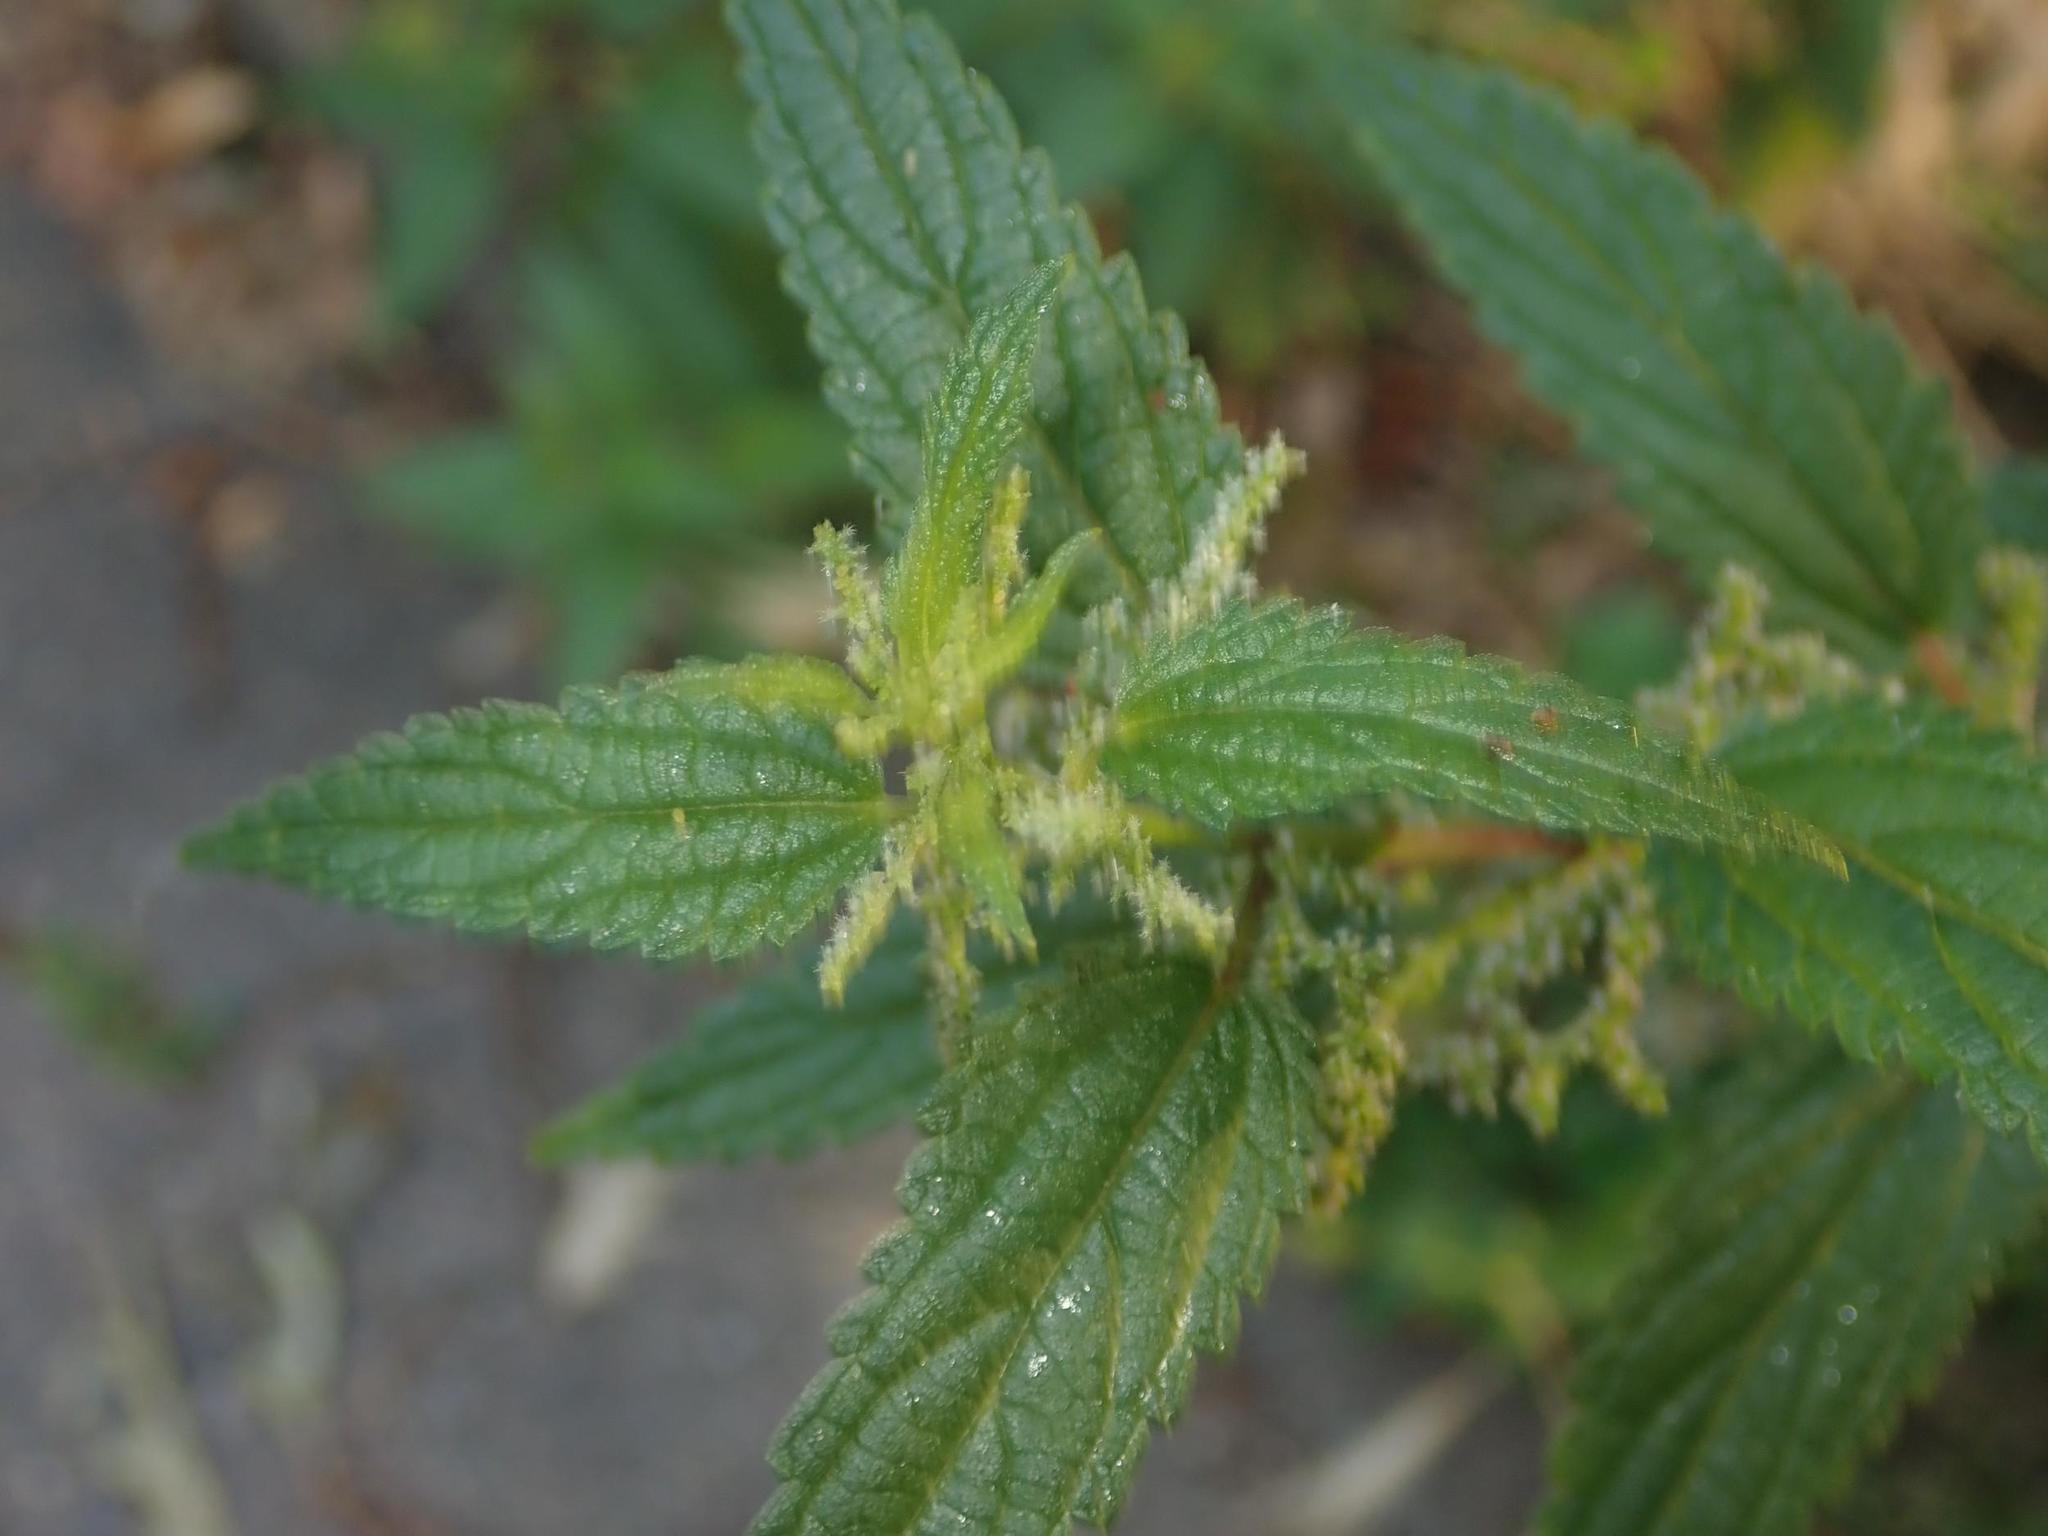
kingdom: Plantae
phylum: Tracheophyta
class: Magnoliopsida
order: Rosales
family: Urticaceae
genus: Urtica
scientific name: Urtica dioica
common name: Common nettle
